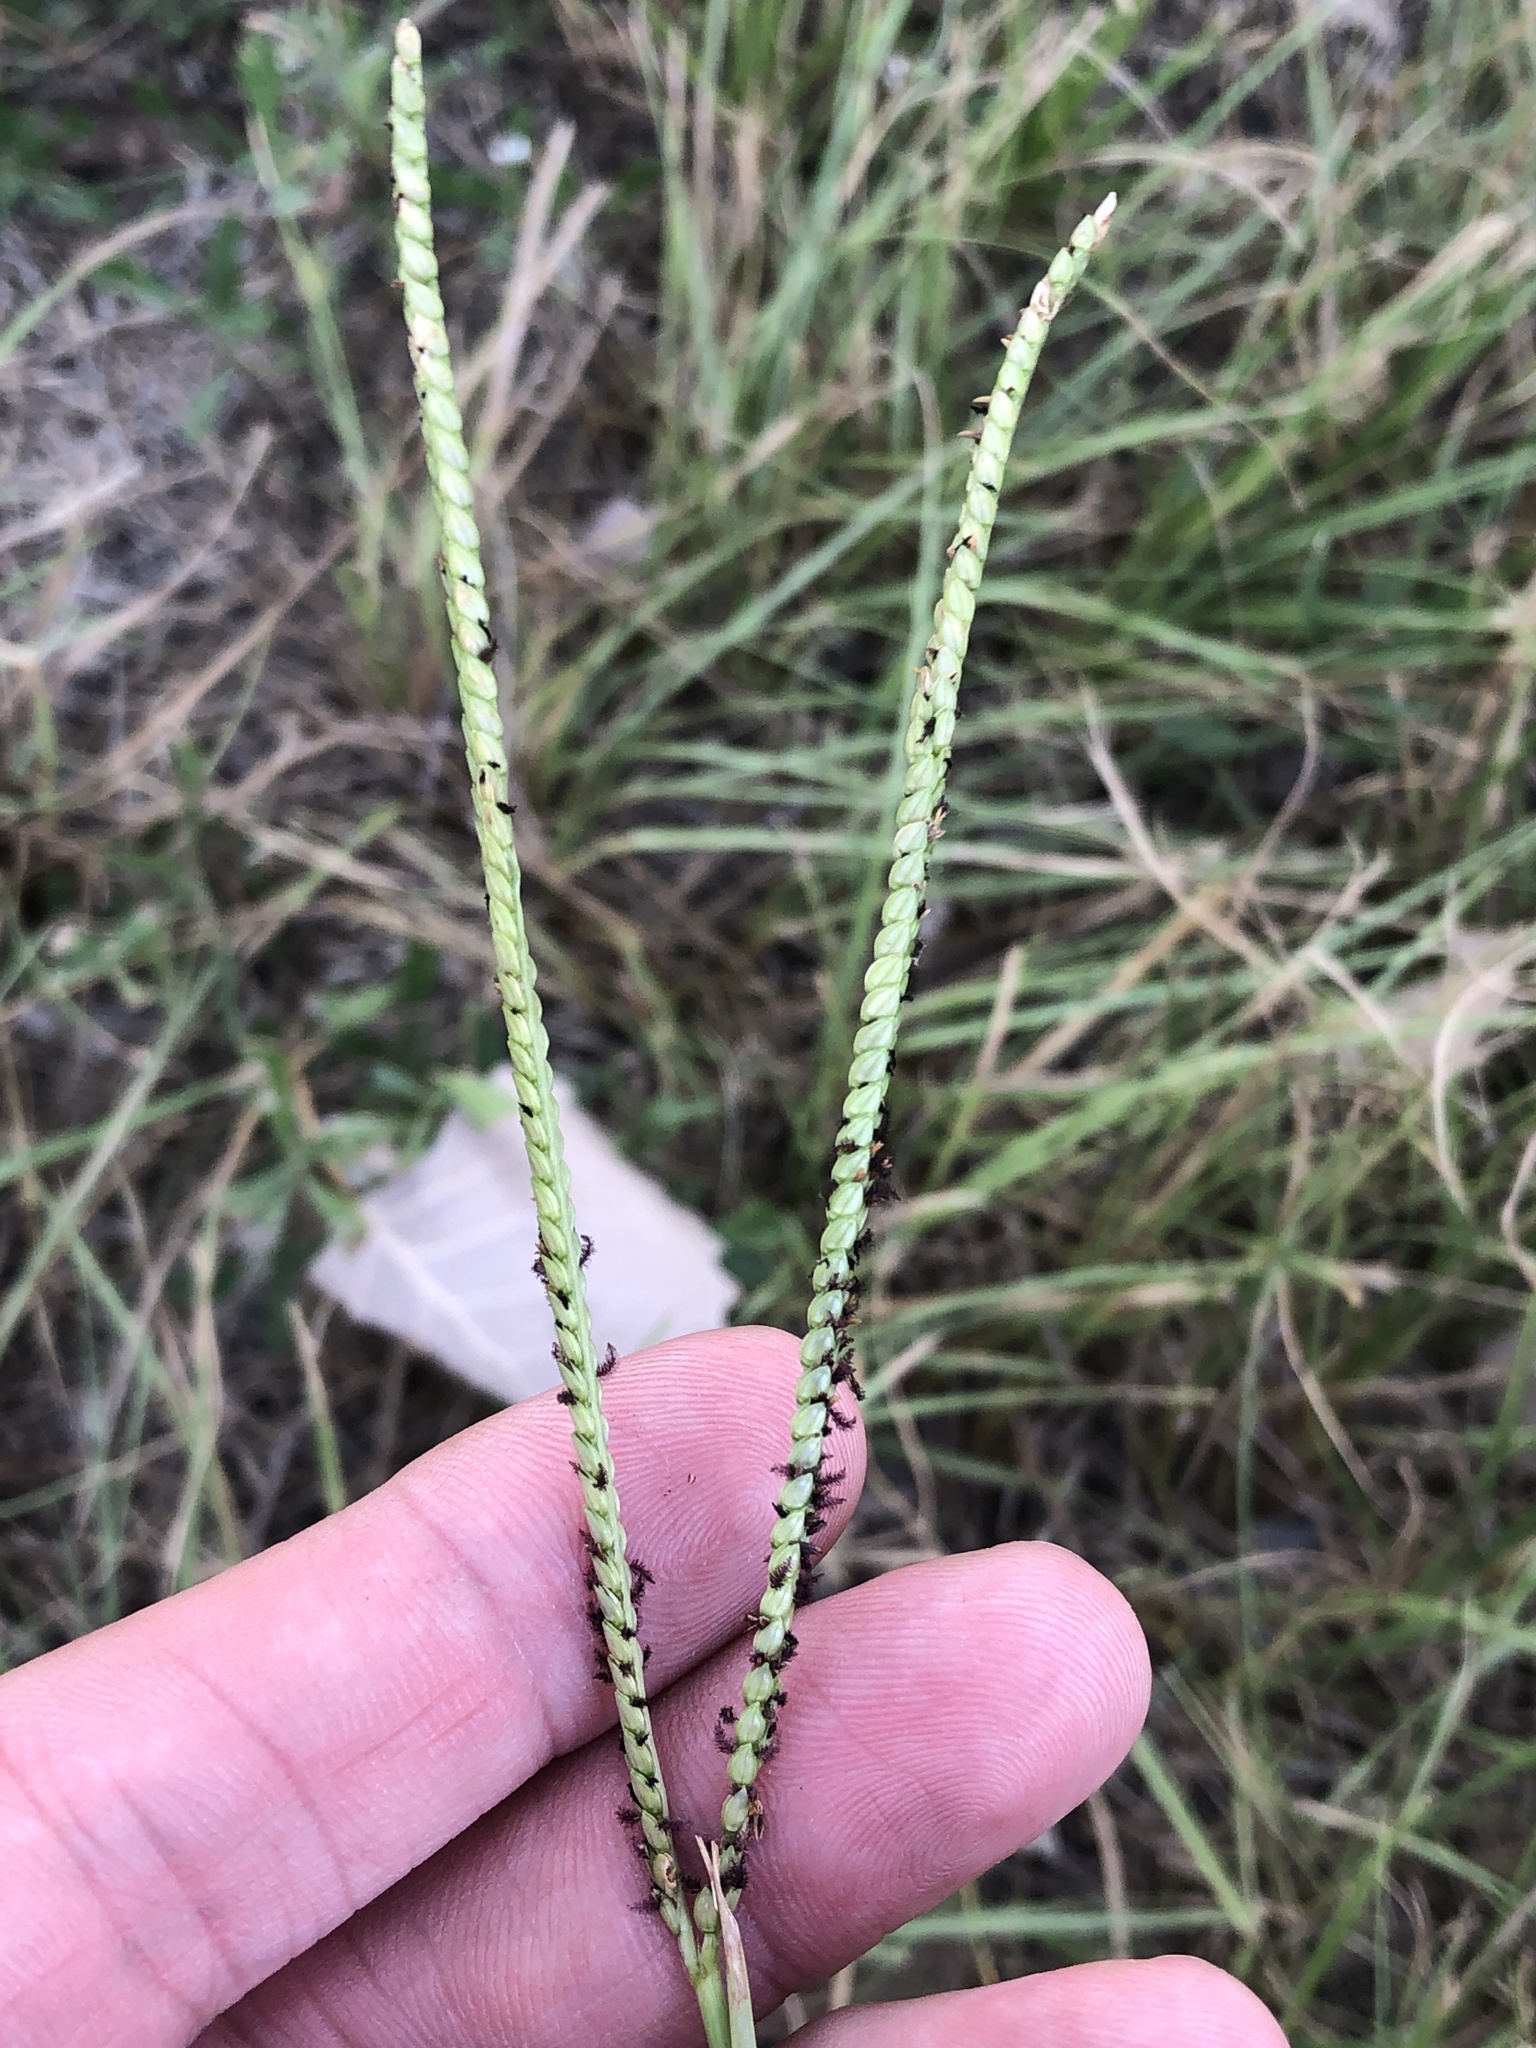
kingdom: Plantae
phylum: Tracheophyta
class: Liliopsida
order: Poales
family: Poaceae
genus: Paspalum
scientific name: Paspalum notatum
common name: Bahiagrass
